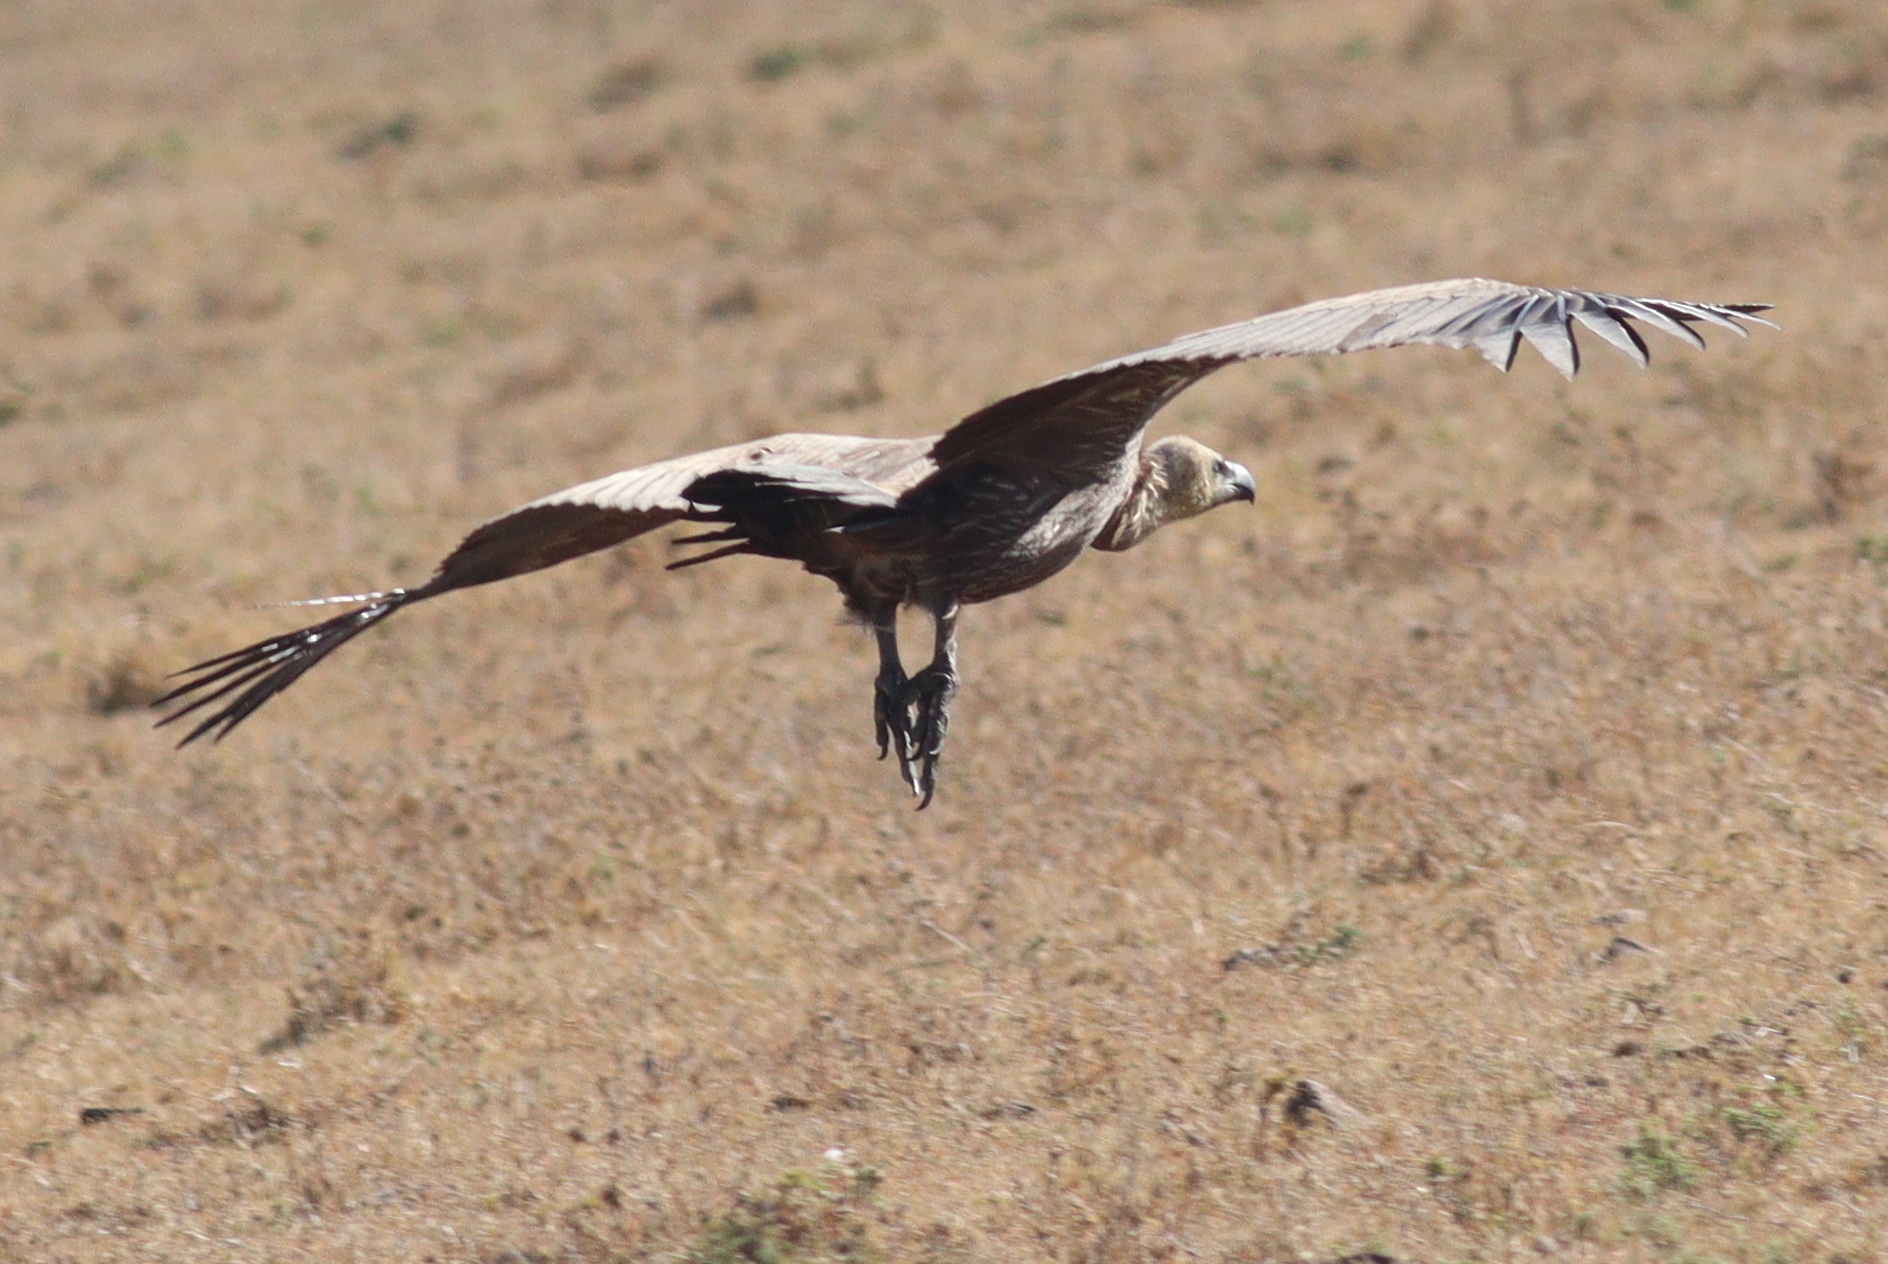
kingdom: Animalia
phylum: Chordata
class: Aves
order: Accipitriformes
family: Accipitridae
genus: Gyps
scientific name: Gyps africanus
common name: White-backed vulture
